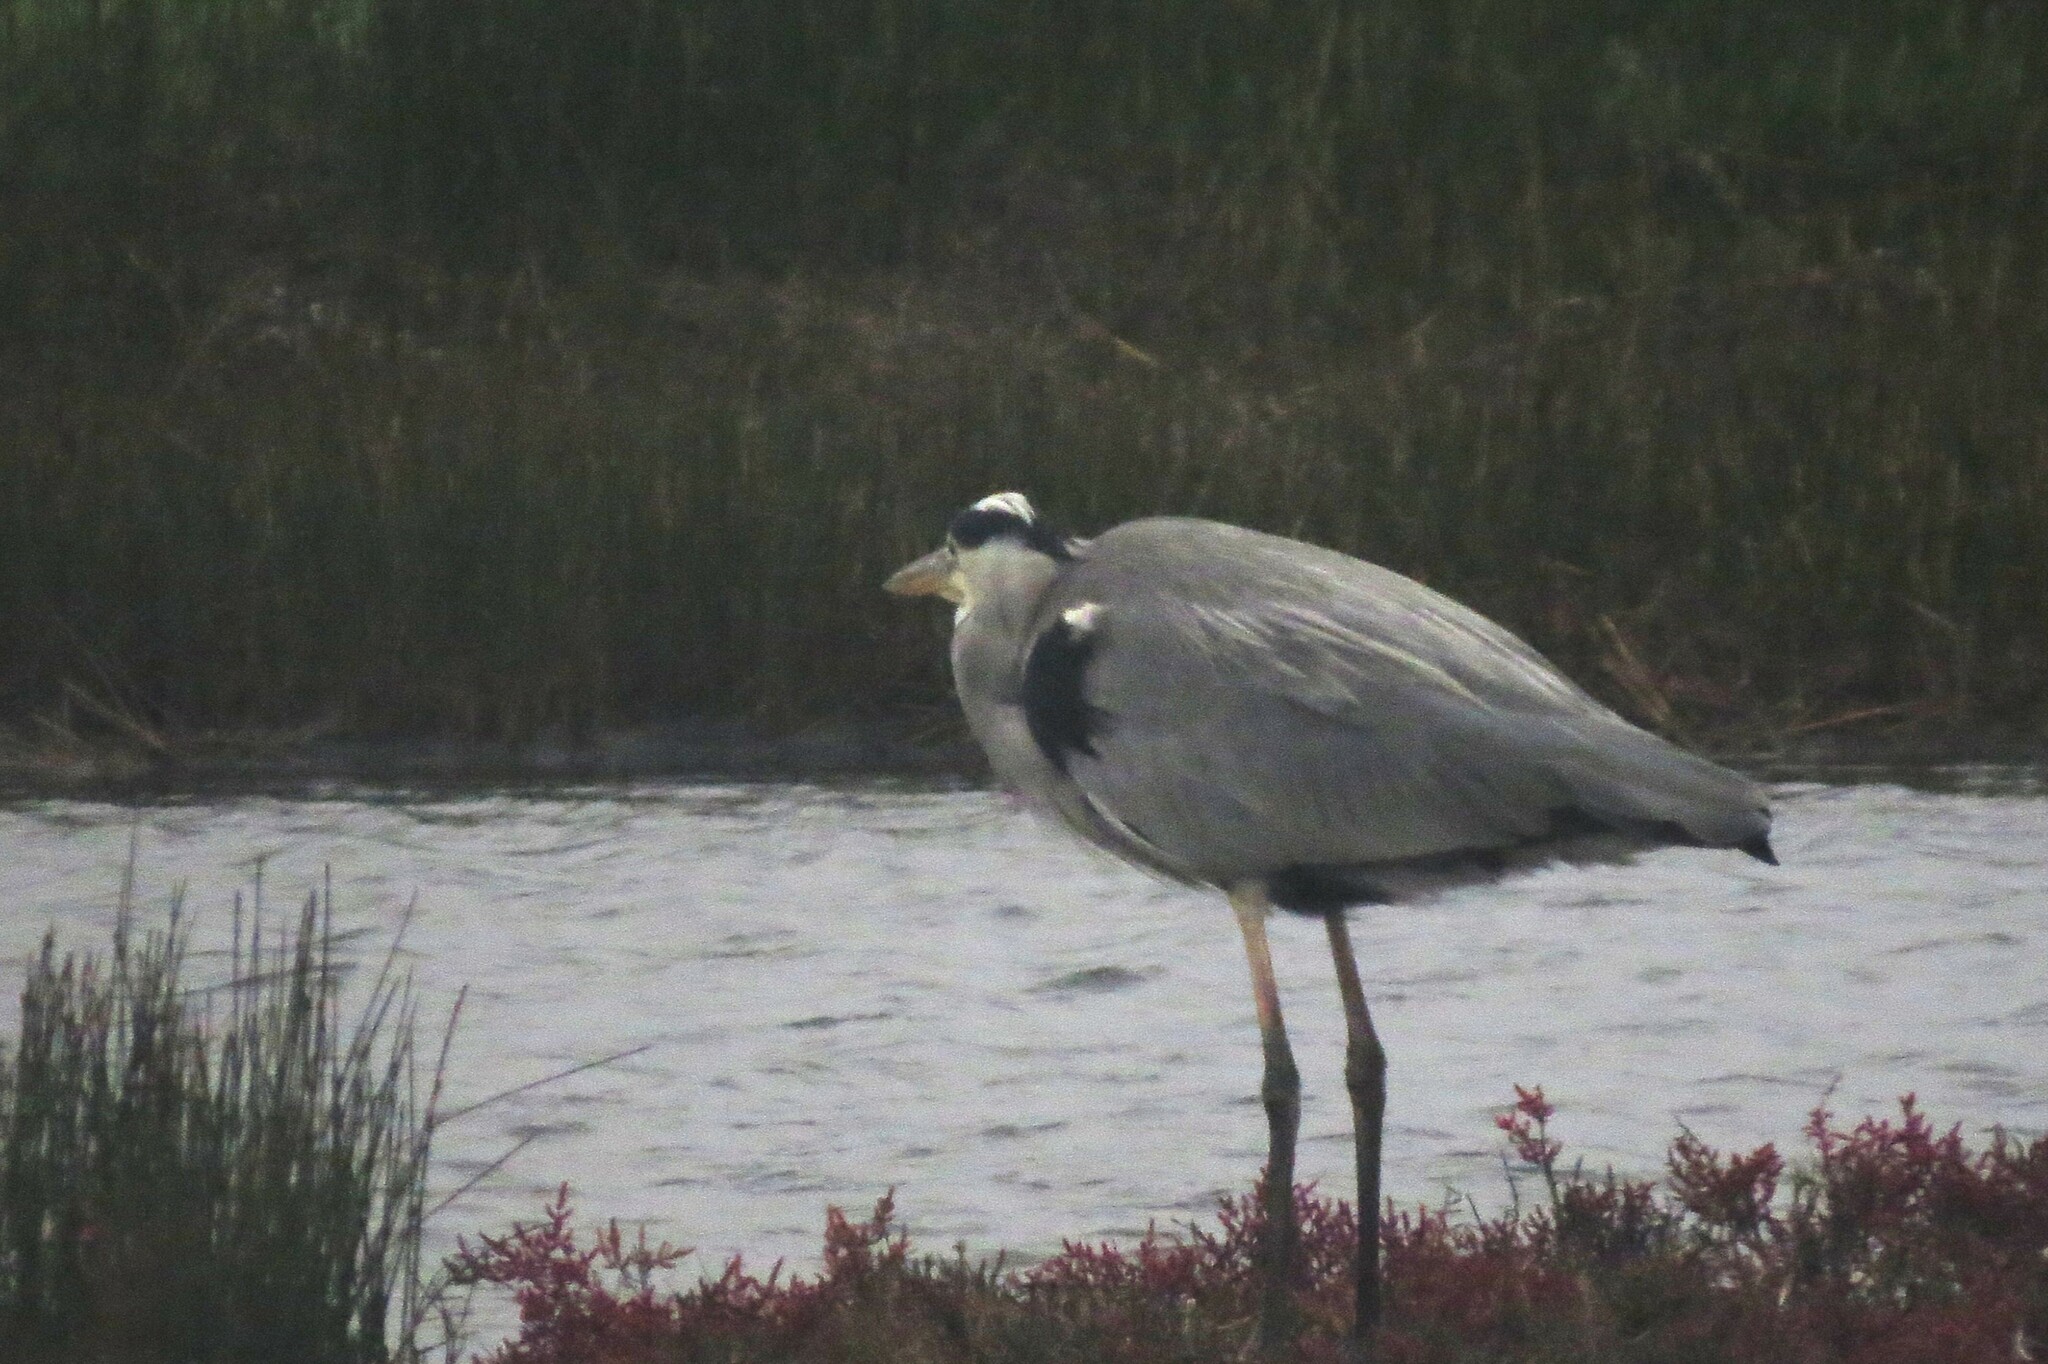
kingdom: Animalia
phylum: Chordata
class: Aves
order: Pelecaniformes
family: Ardeidae
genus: Ardea
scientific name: Ardea cinerea
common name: Grey heron
